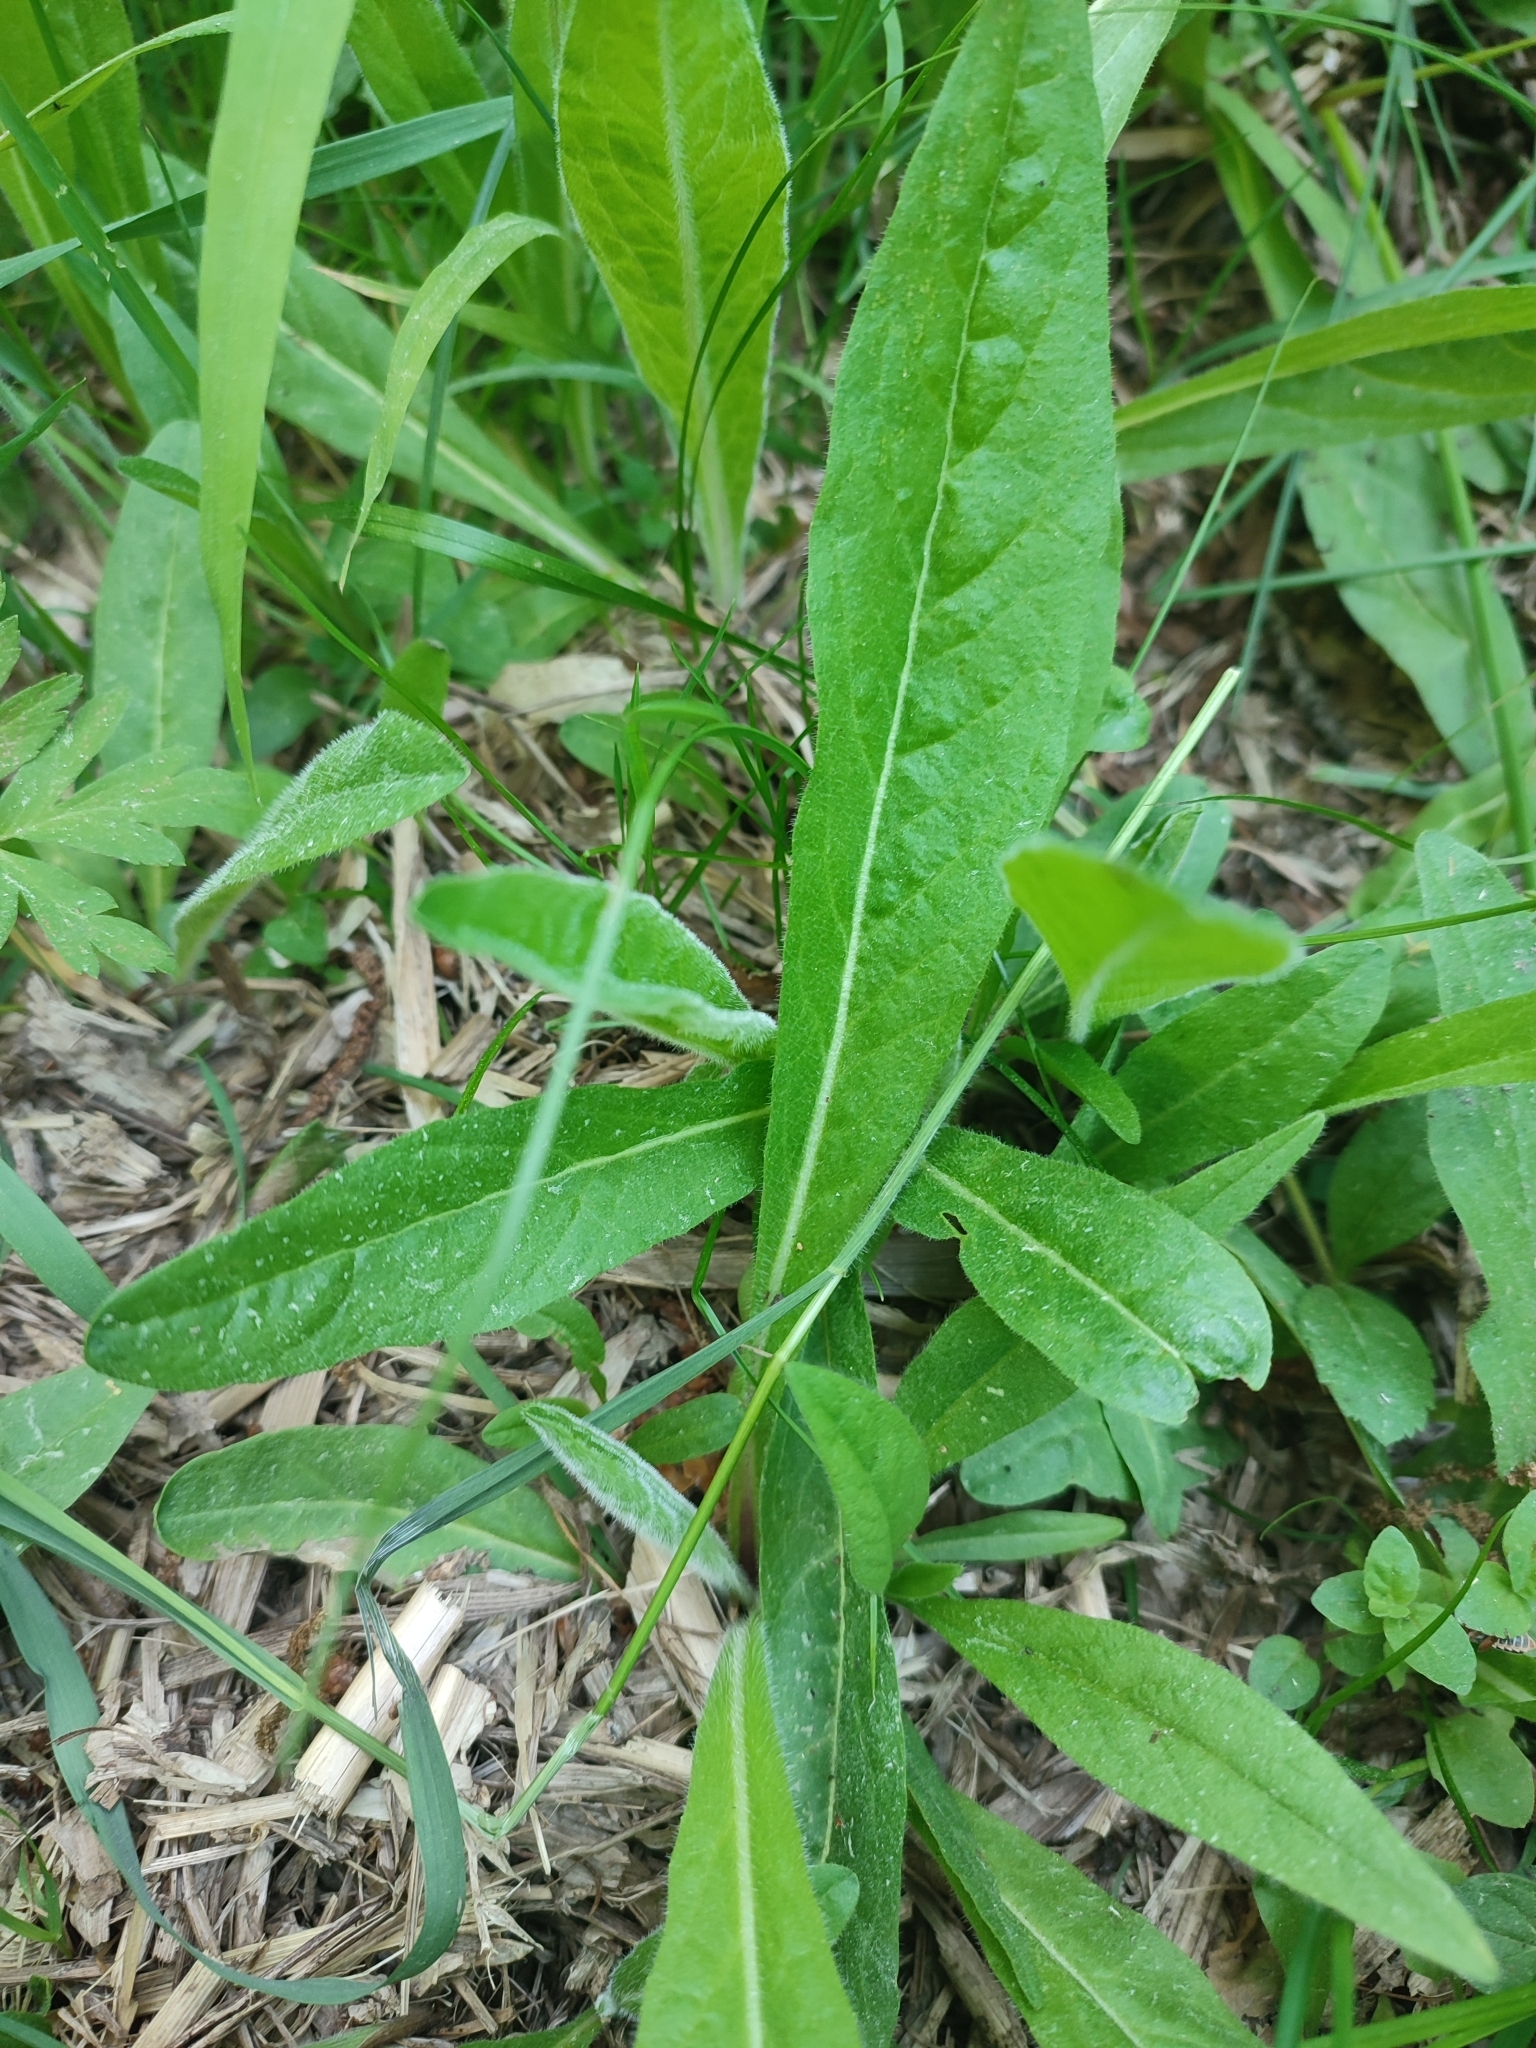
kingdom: Plantae
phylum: Tracheophyta
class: Magnoliopsida
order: Asterales
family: Asteraceae
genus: Pilosella
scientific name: Pilosella onegensis
